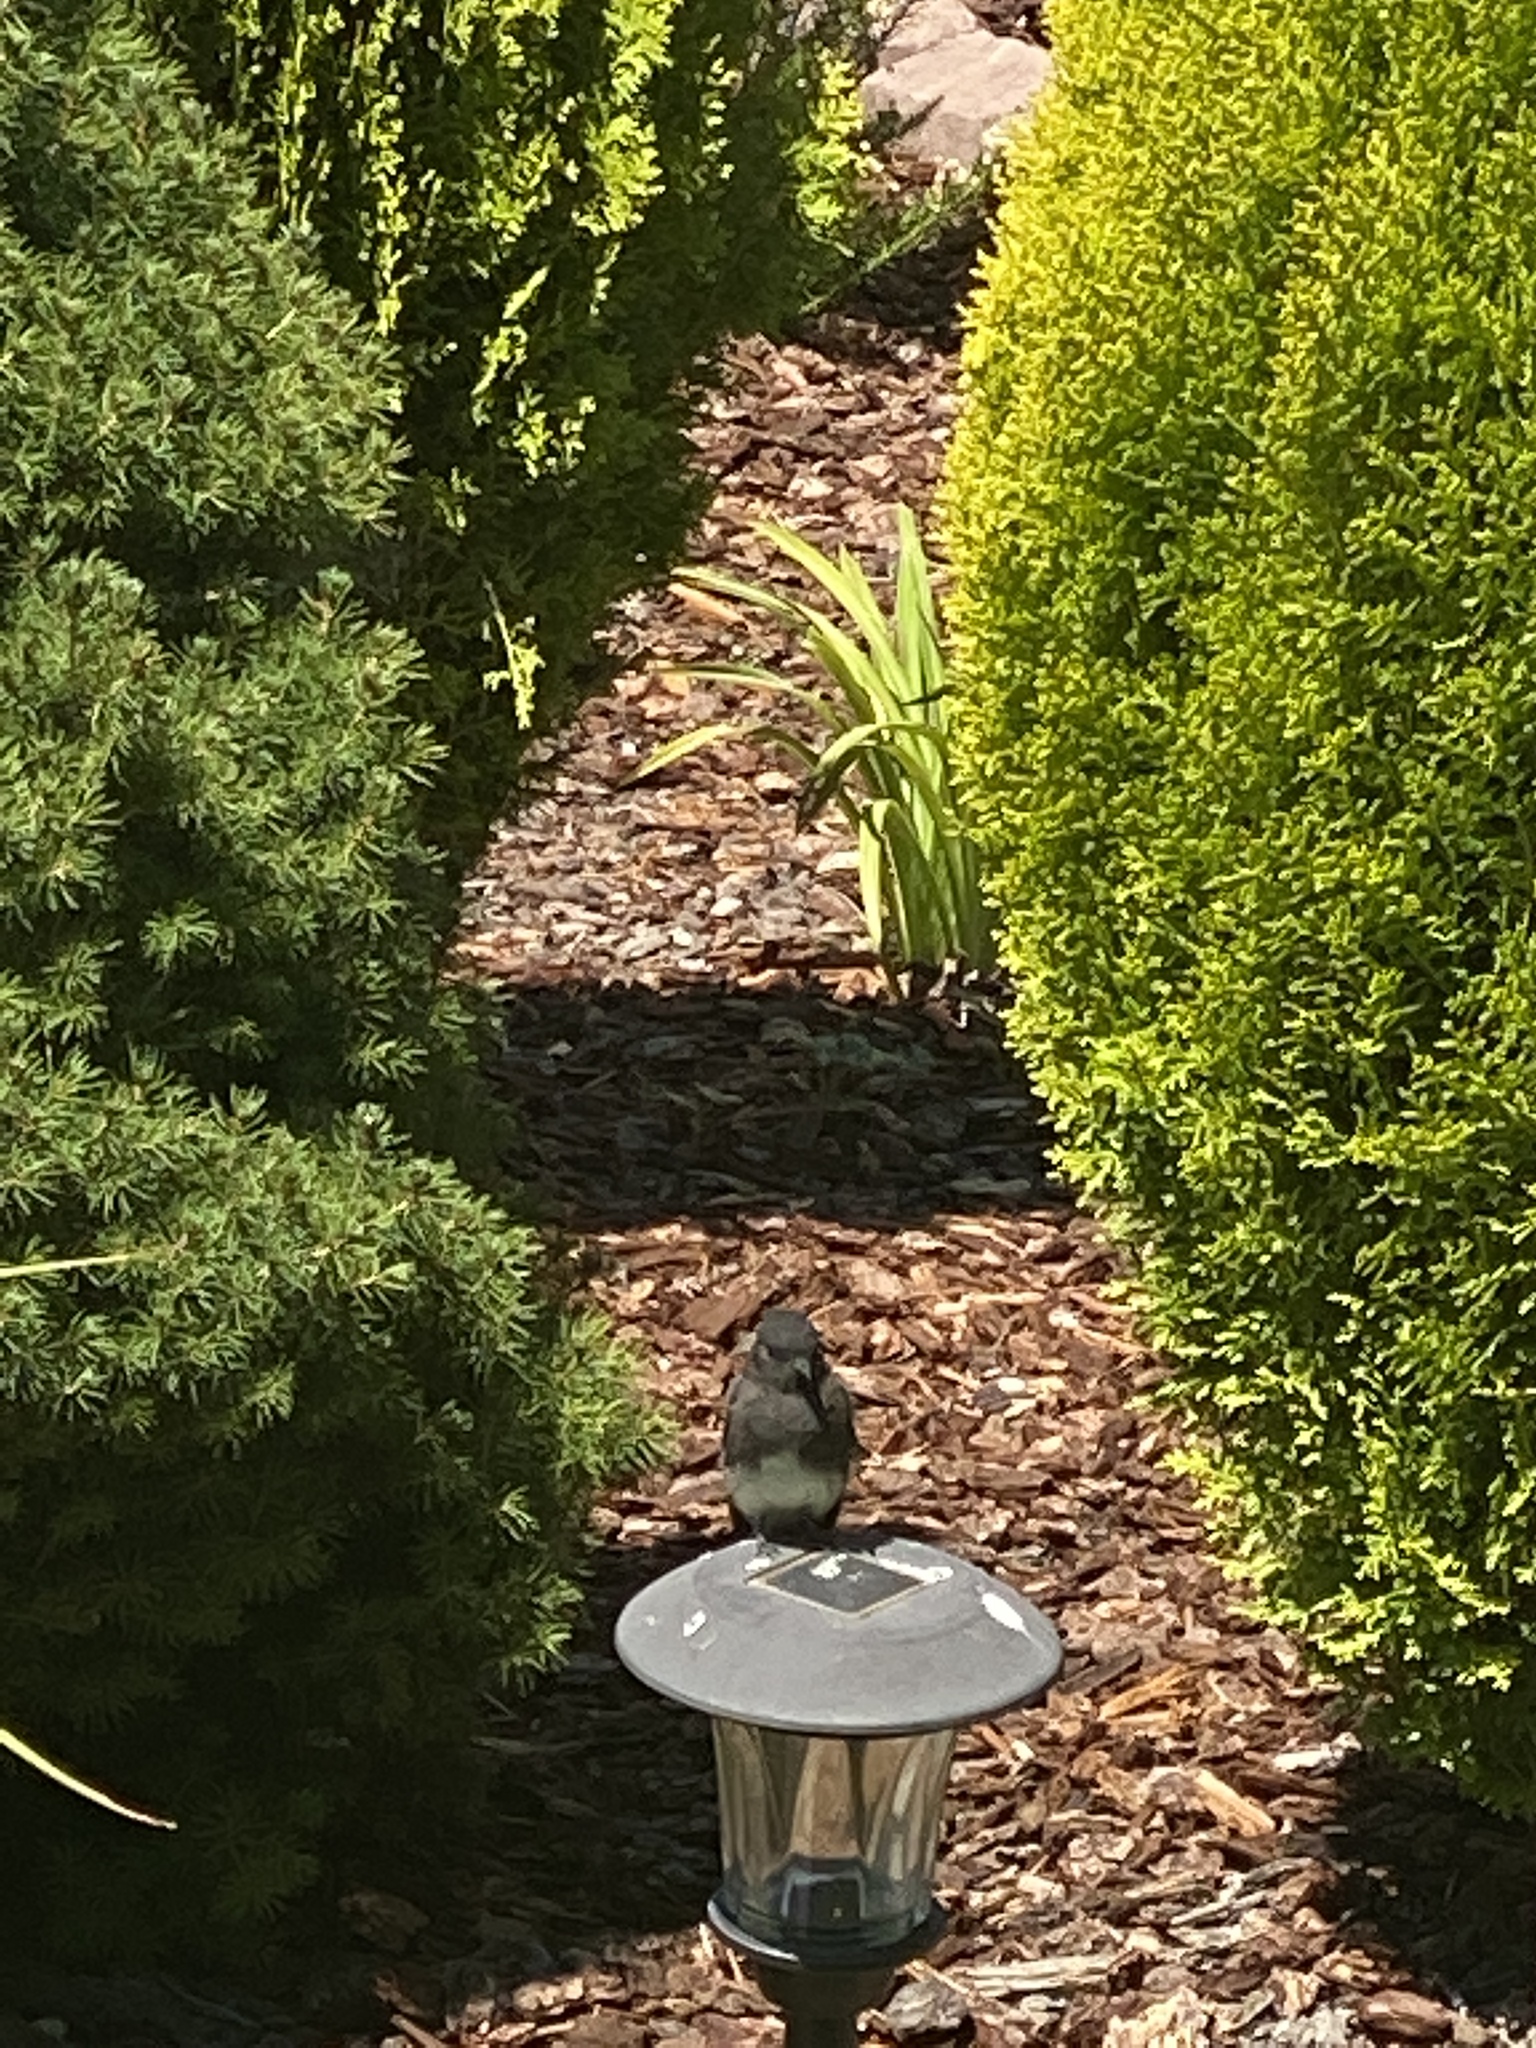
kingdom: Animalia
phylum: Chordata
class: Aves
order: Passeriformes
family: Tyrannidae
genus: Sayornis
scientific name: Sayornis nigricans
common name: Black phoebe
